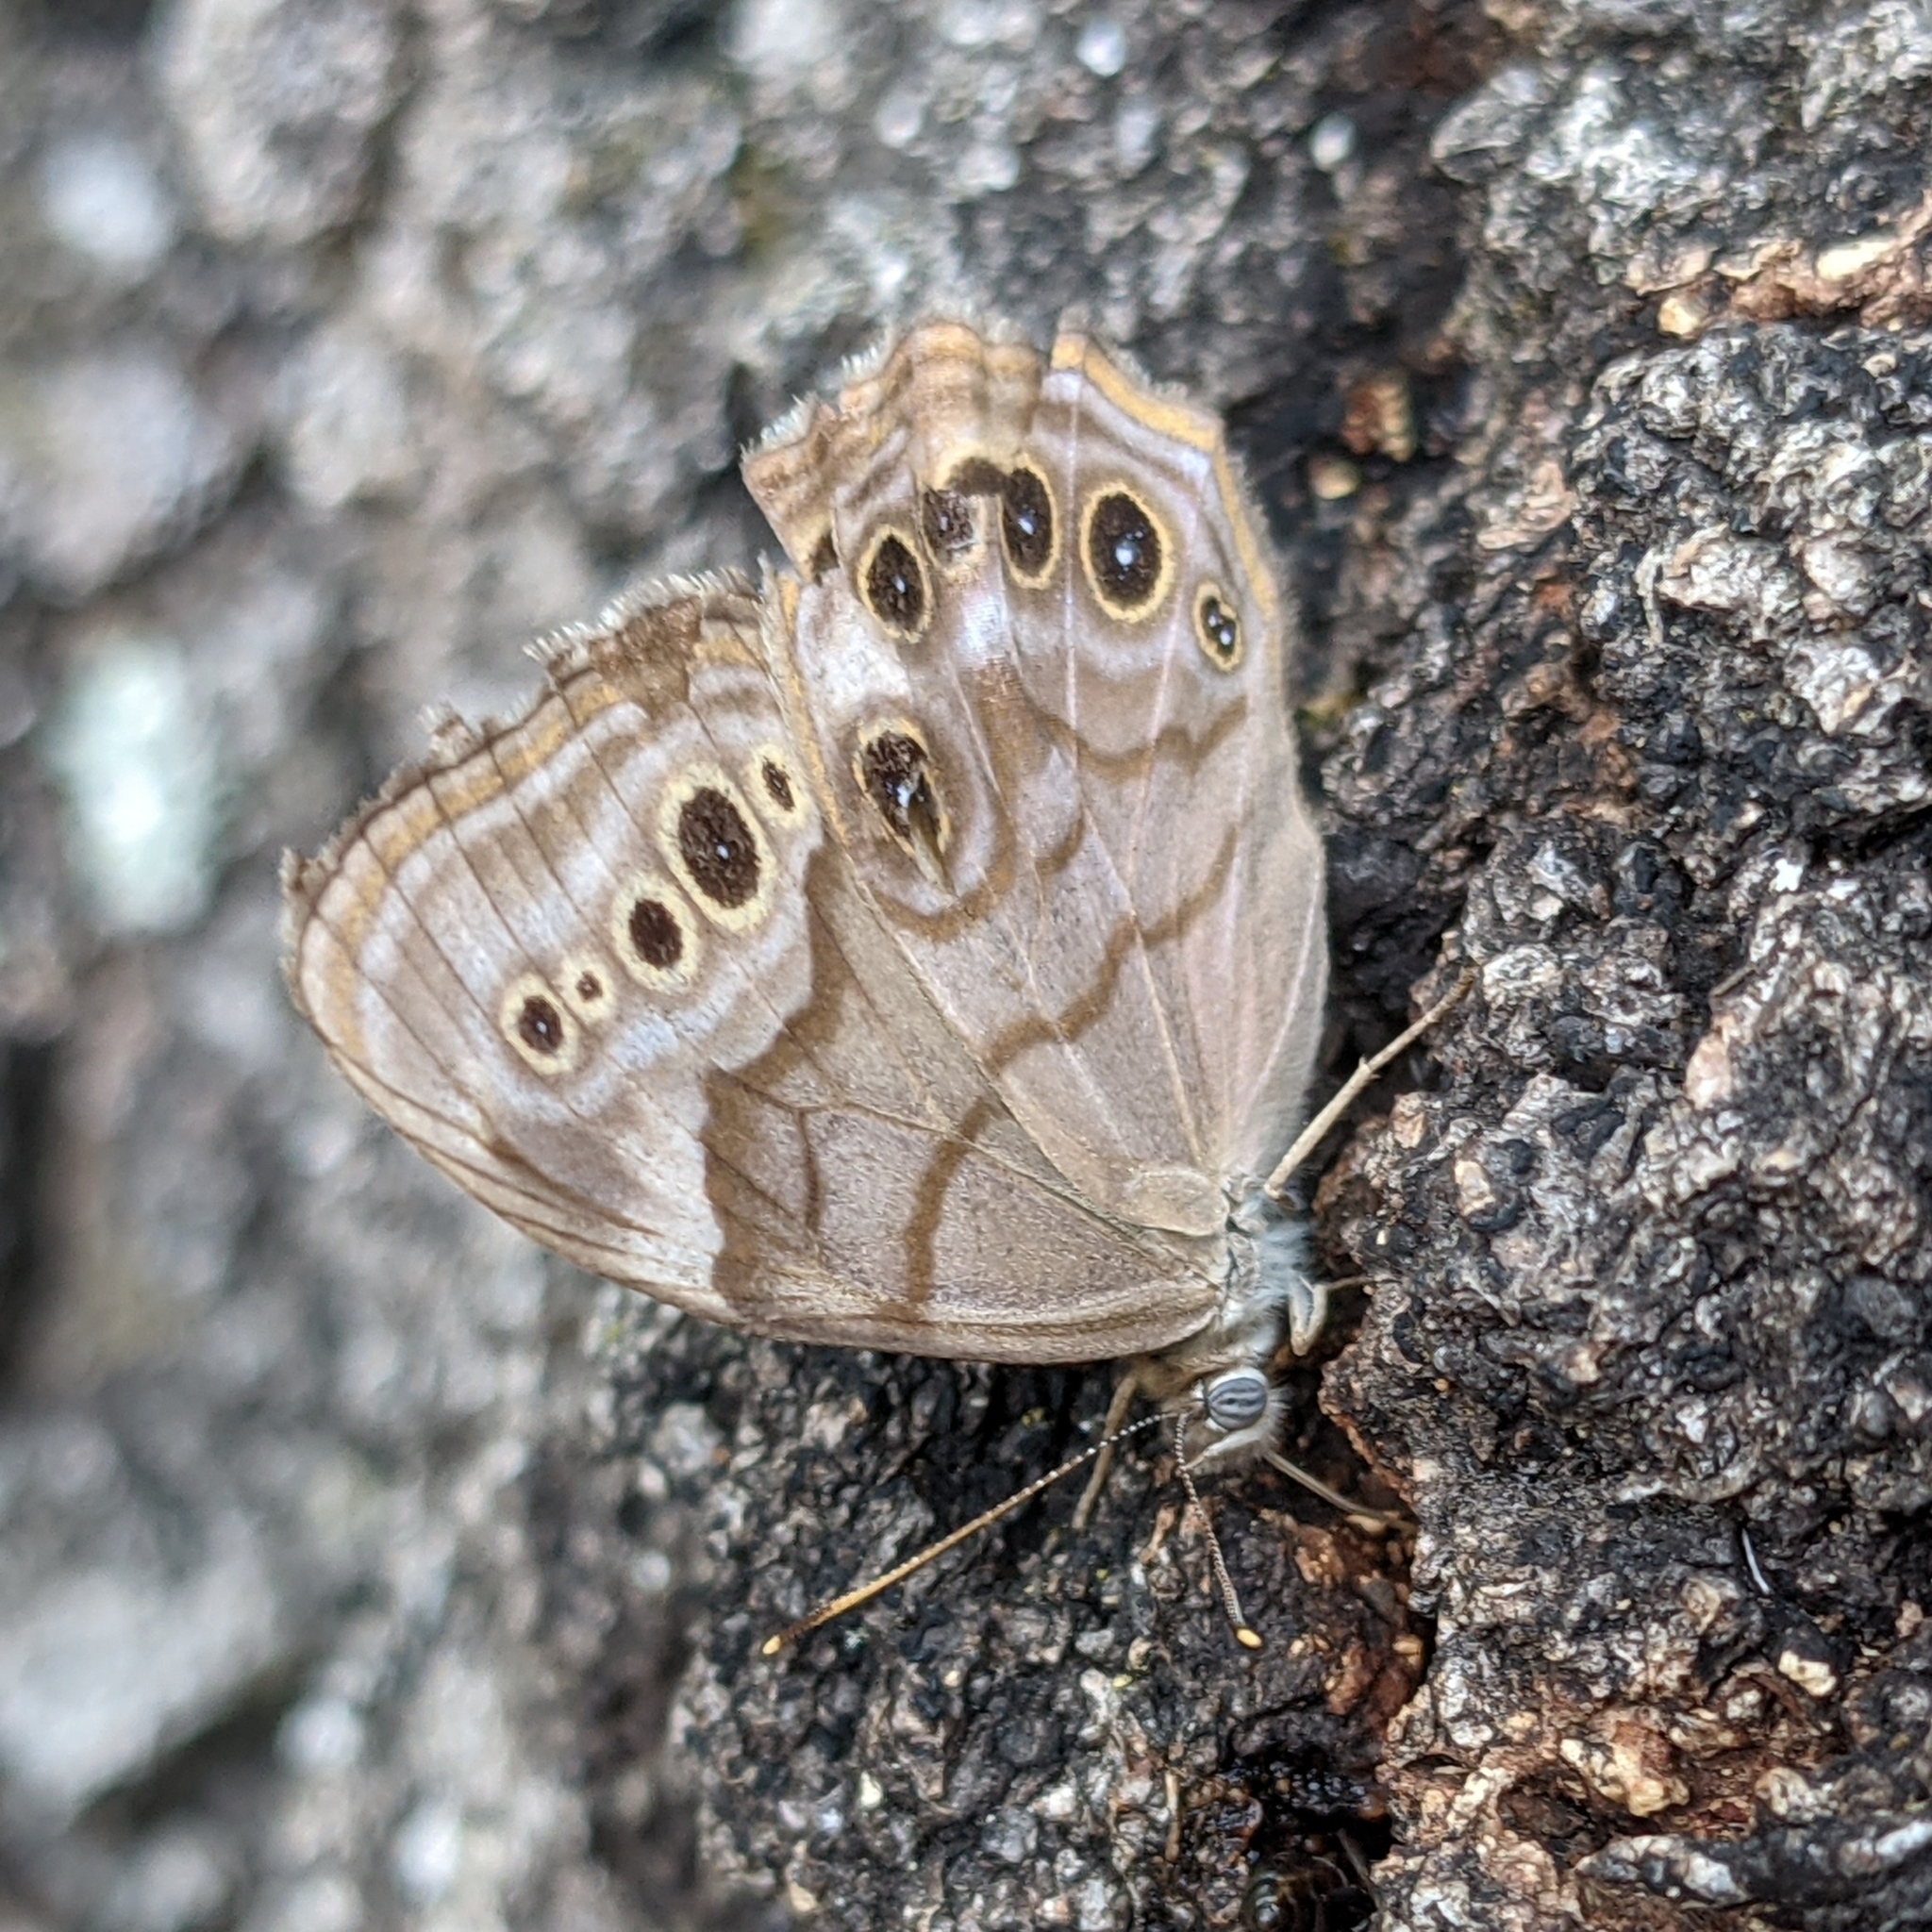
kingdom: Animalia
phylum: Arthropoda
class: Insecta
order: Lepidoptera
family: Nymphalidae
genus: Lethe
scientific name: Lethe anthedon
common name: Northern pearly-eye
